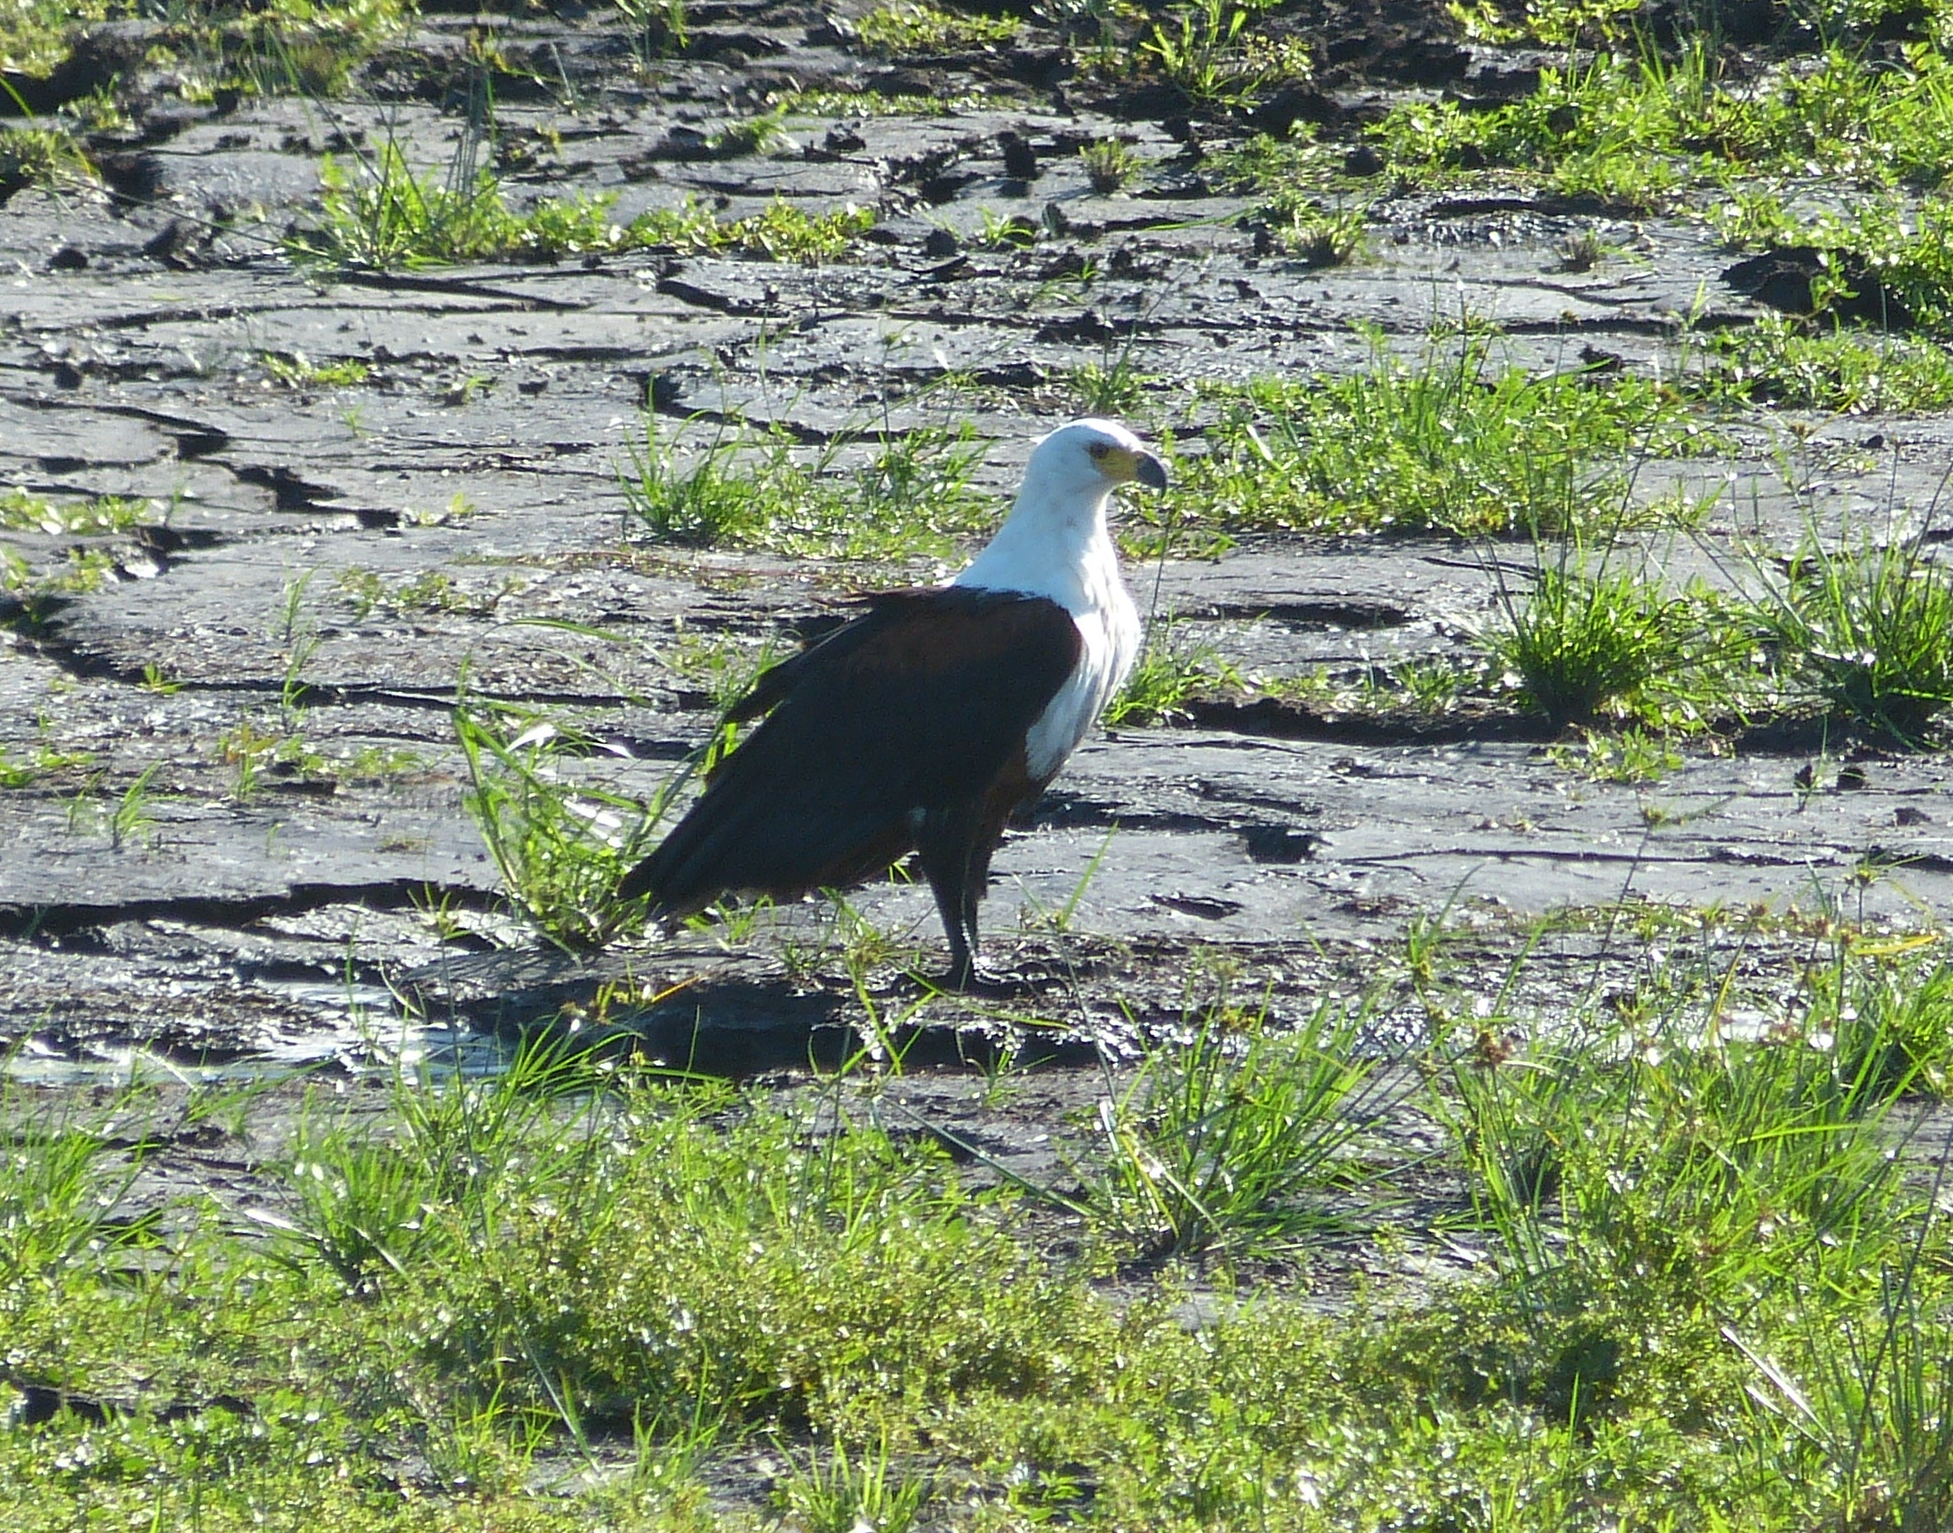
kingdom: Animalia
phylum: Chordata
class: Aves
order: Accipitriformes
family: Accipitridae
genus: Haliaeetus
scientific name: Haliaeetus vocifer
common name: African fish eagle
